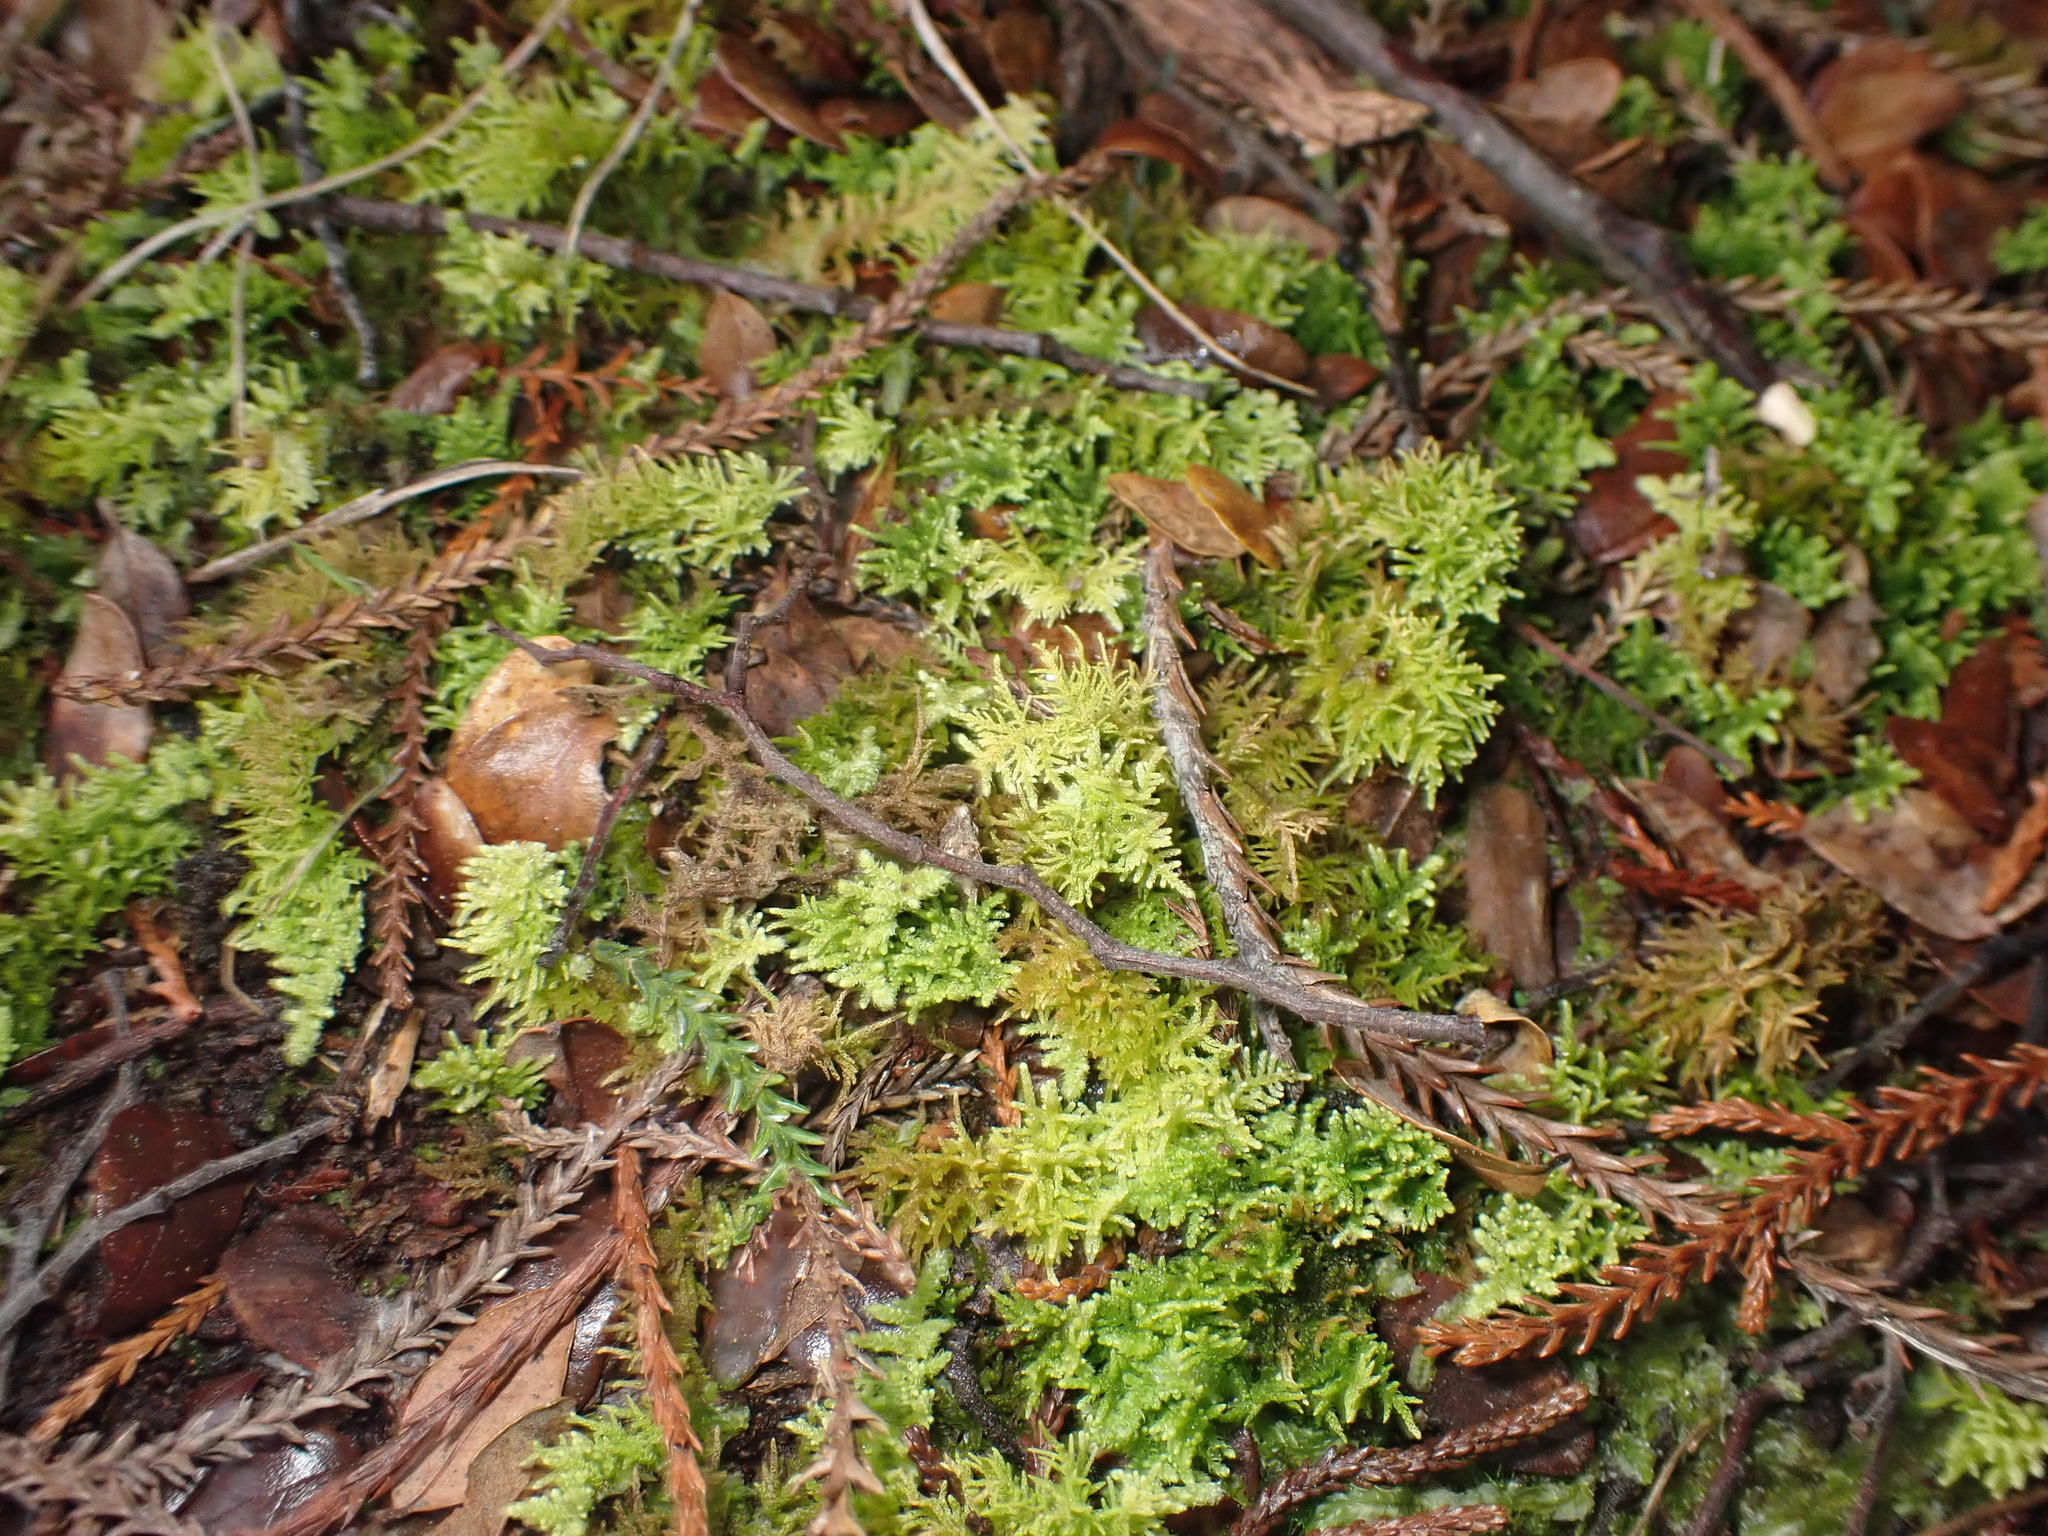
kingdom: Plantae
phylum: Bryophyta
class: Bryopsida
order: Hypnales
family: Thuidiaceae
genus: Thuidiopsis
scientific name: Thuidiopsis sparsa
